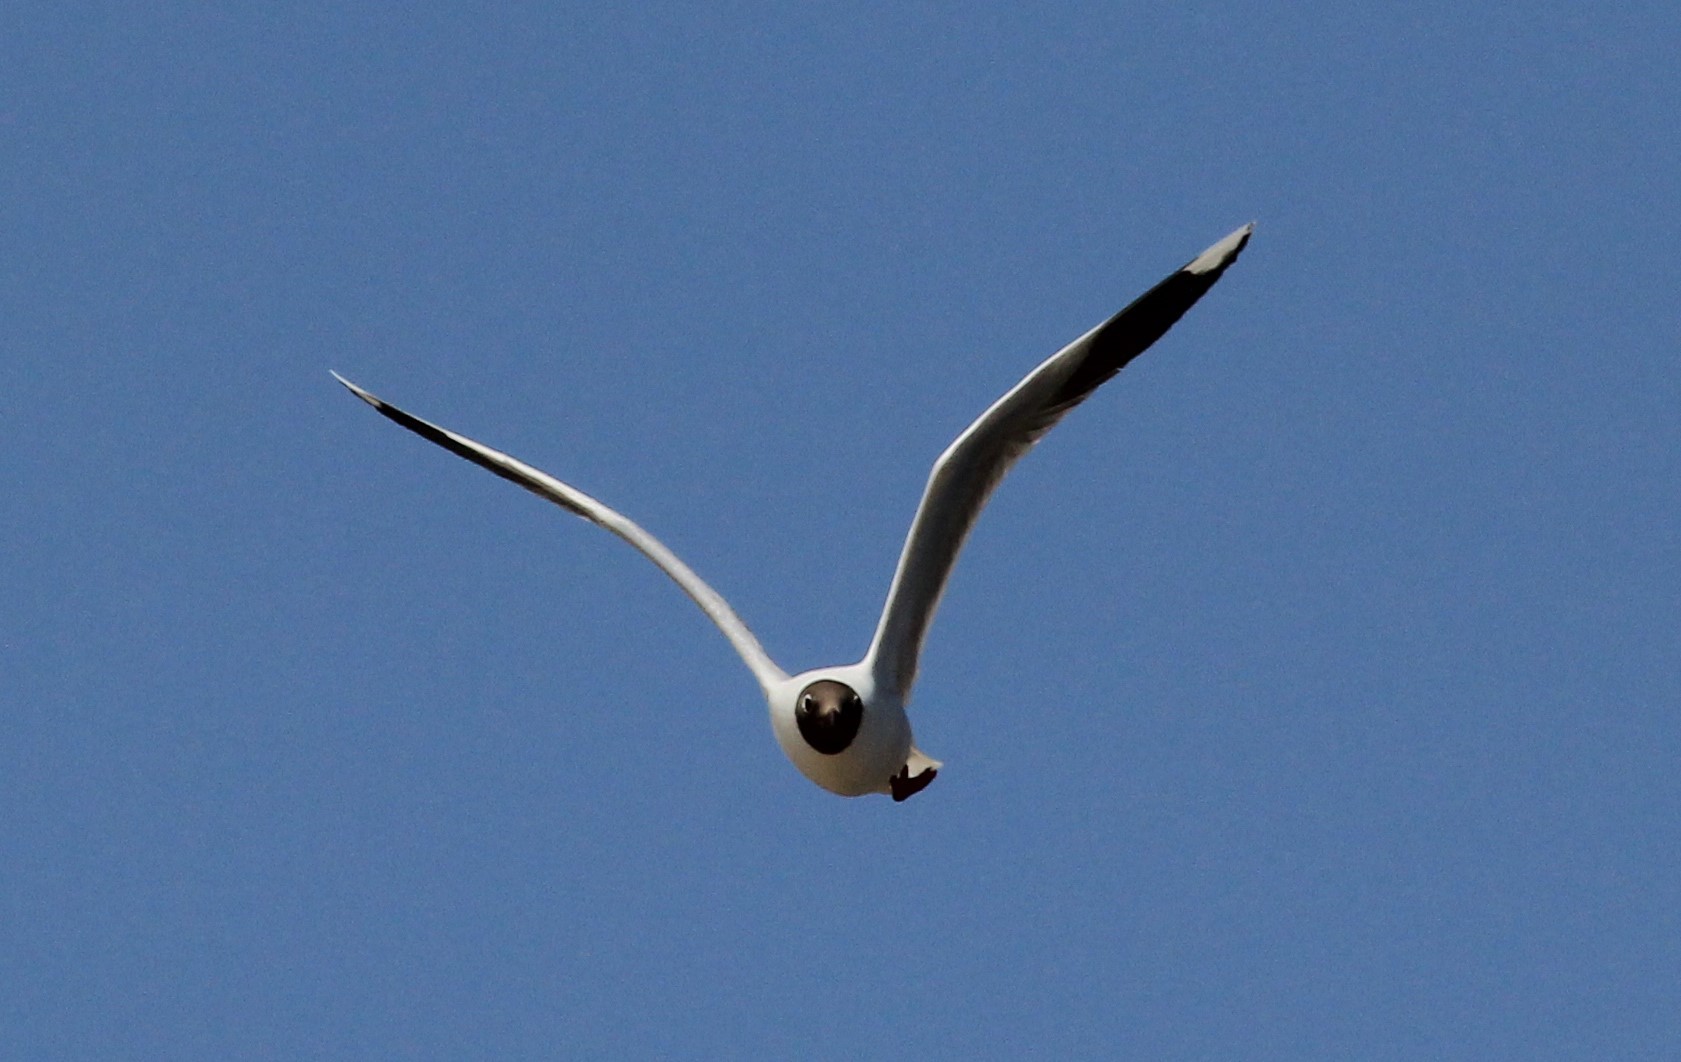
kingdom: Animalia
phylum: Chordata
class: Aves
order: Charadriiformes
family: Laridae
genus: Chroicocephalus
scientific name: Chroicocephalus maculipennis
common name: Brown-hooded gull
